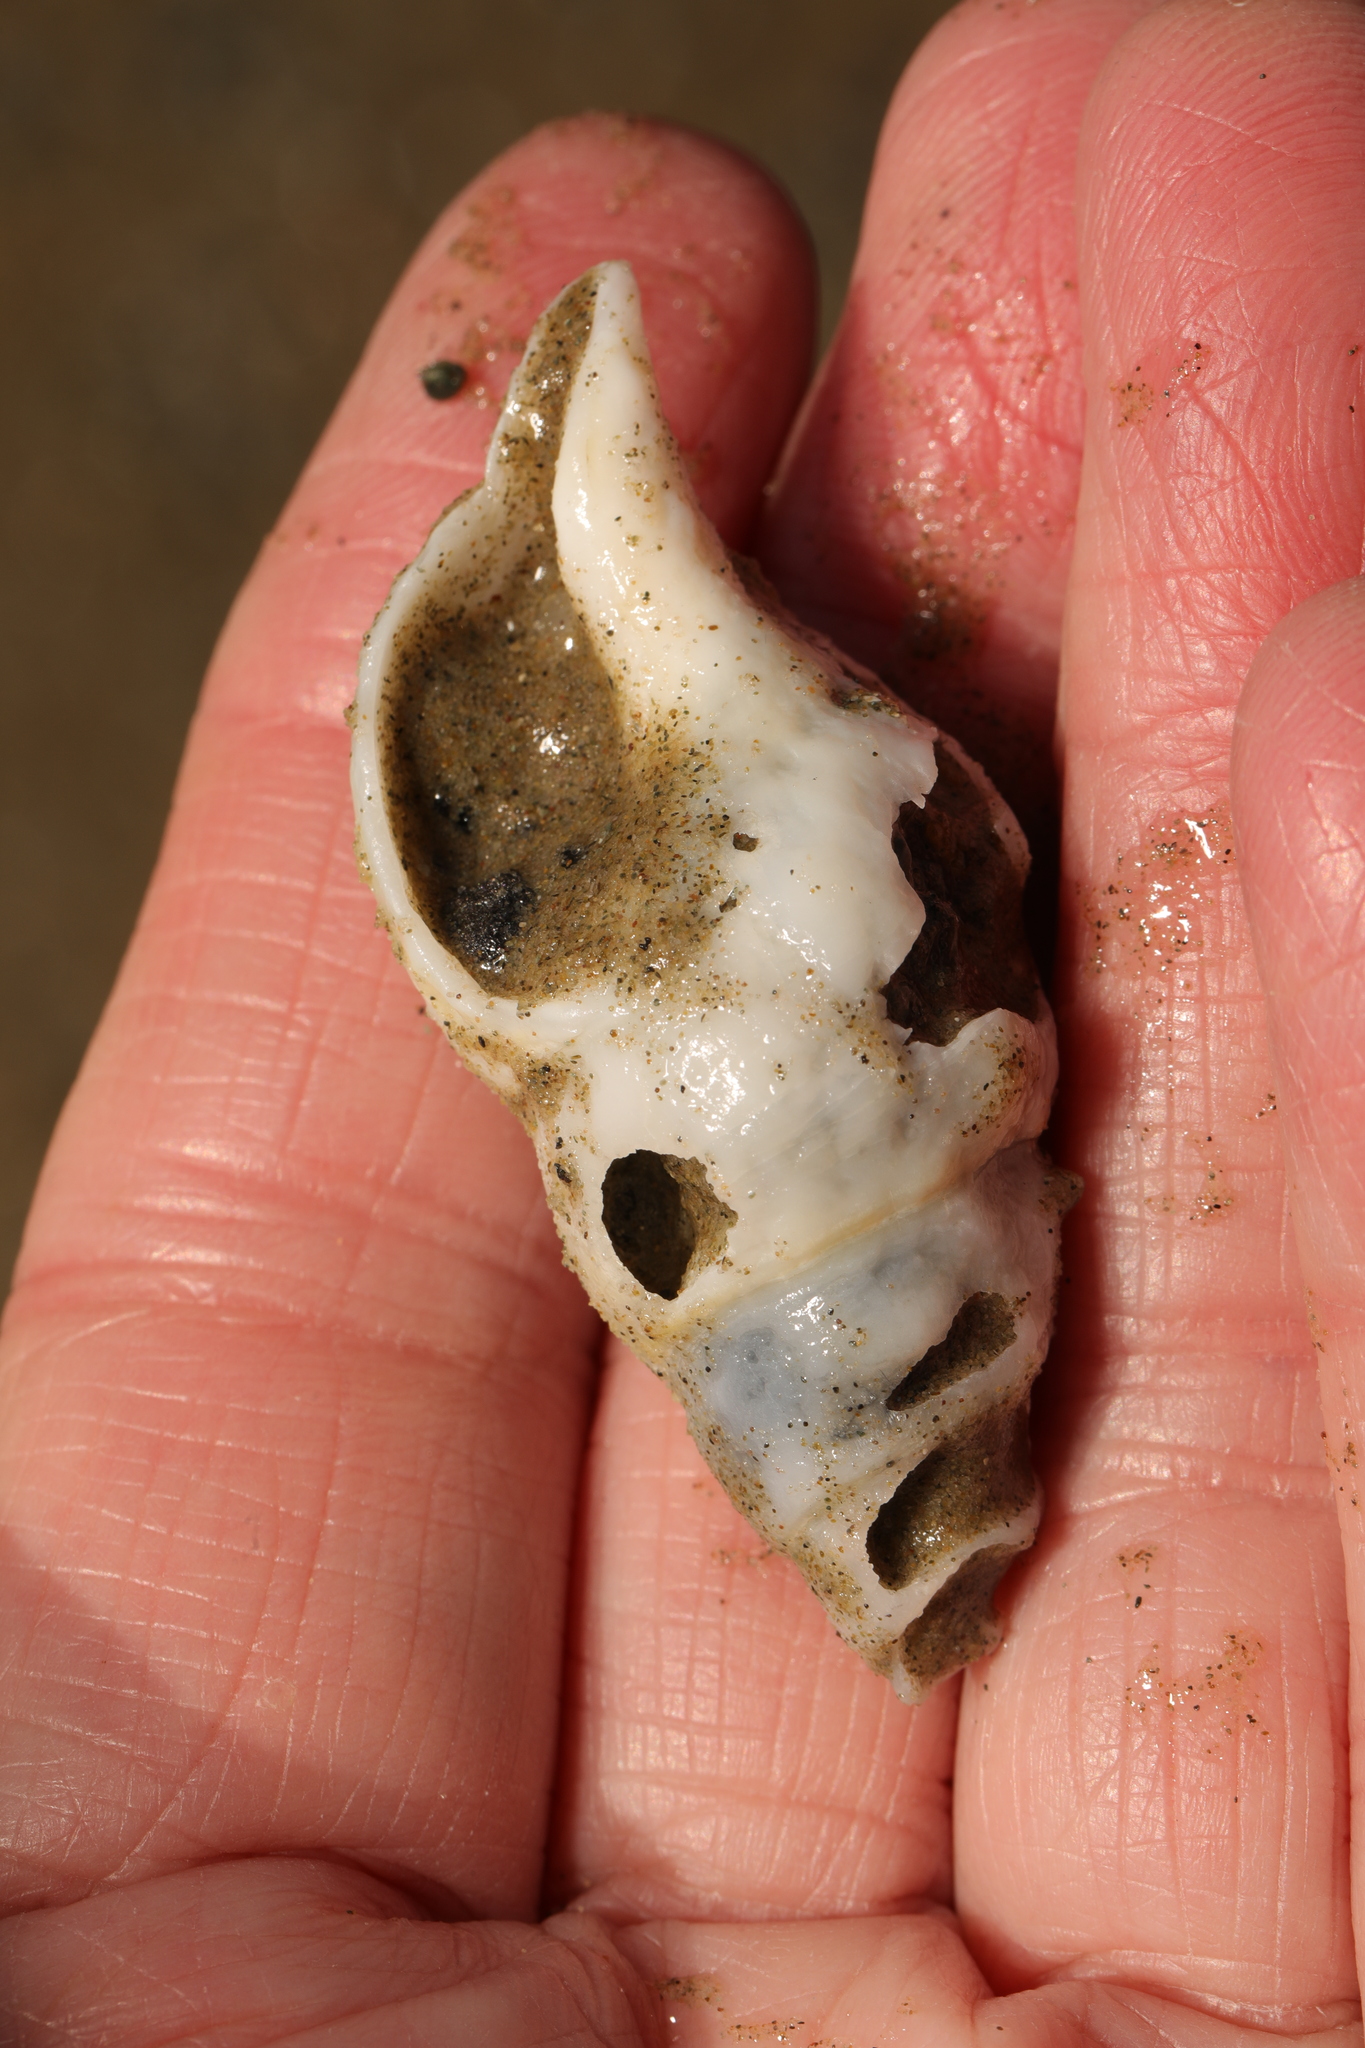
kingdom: Animalia
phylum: Mollusca
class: Gastropoda
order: Neogastropoda
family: Colidae
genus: Colus
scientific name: Colus gracilis
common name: Graceful colus
